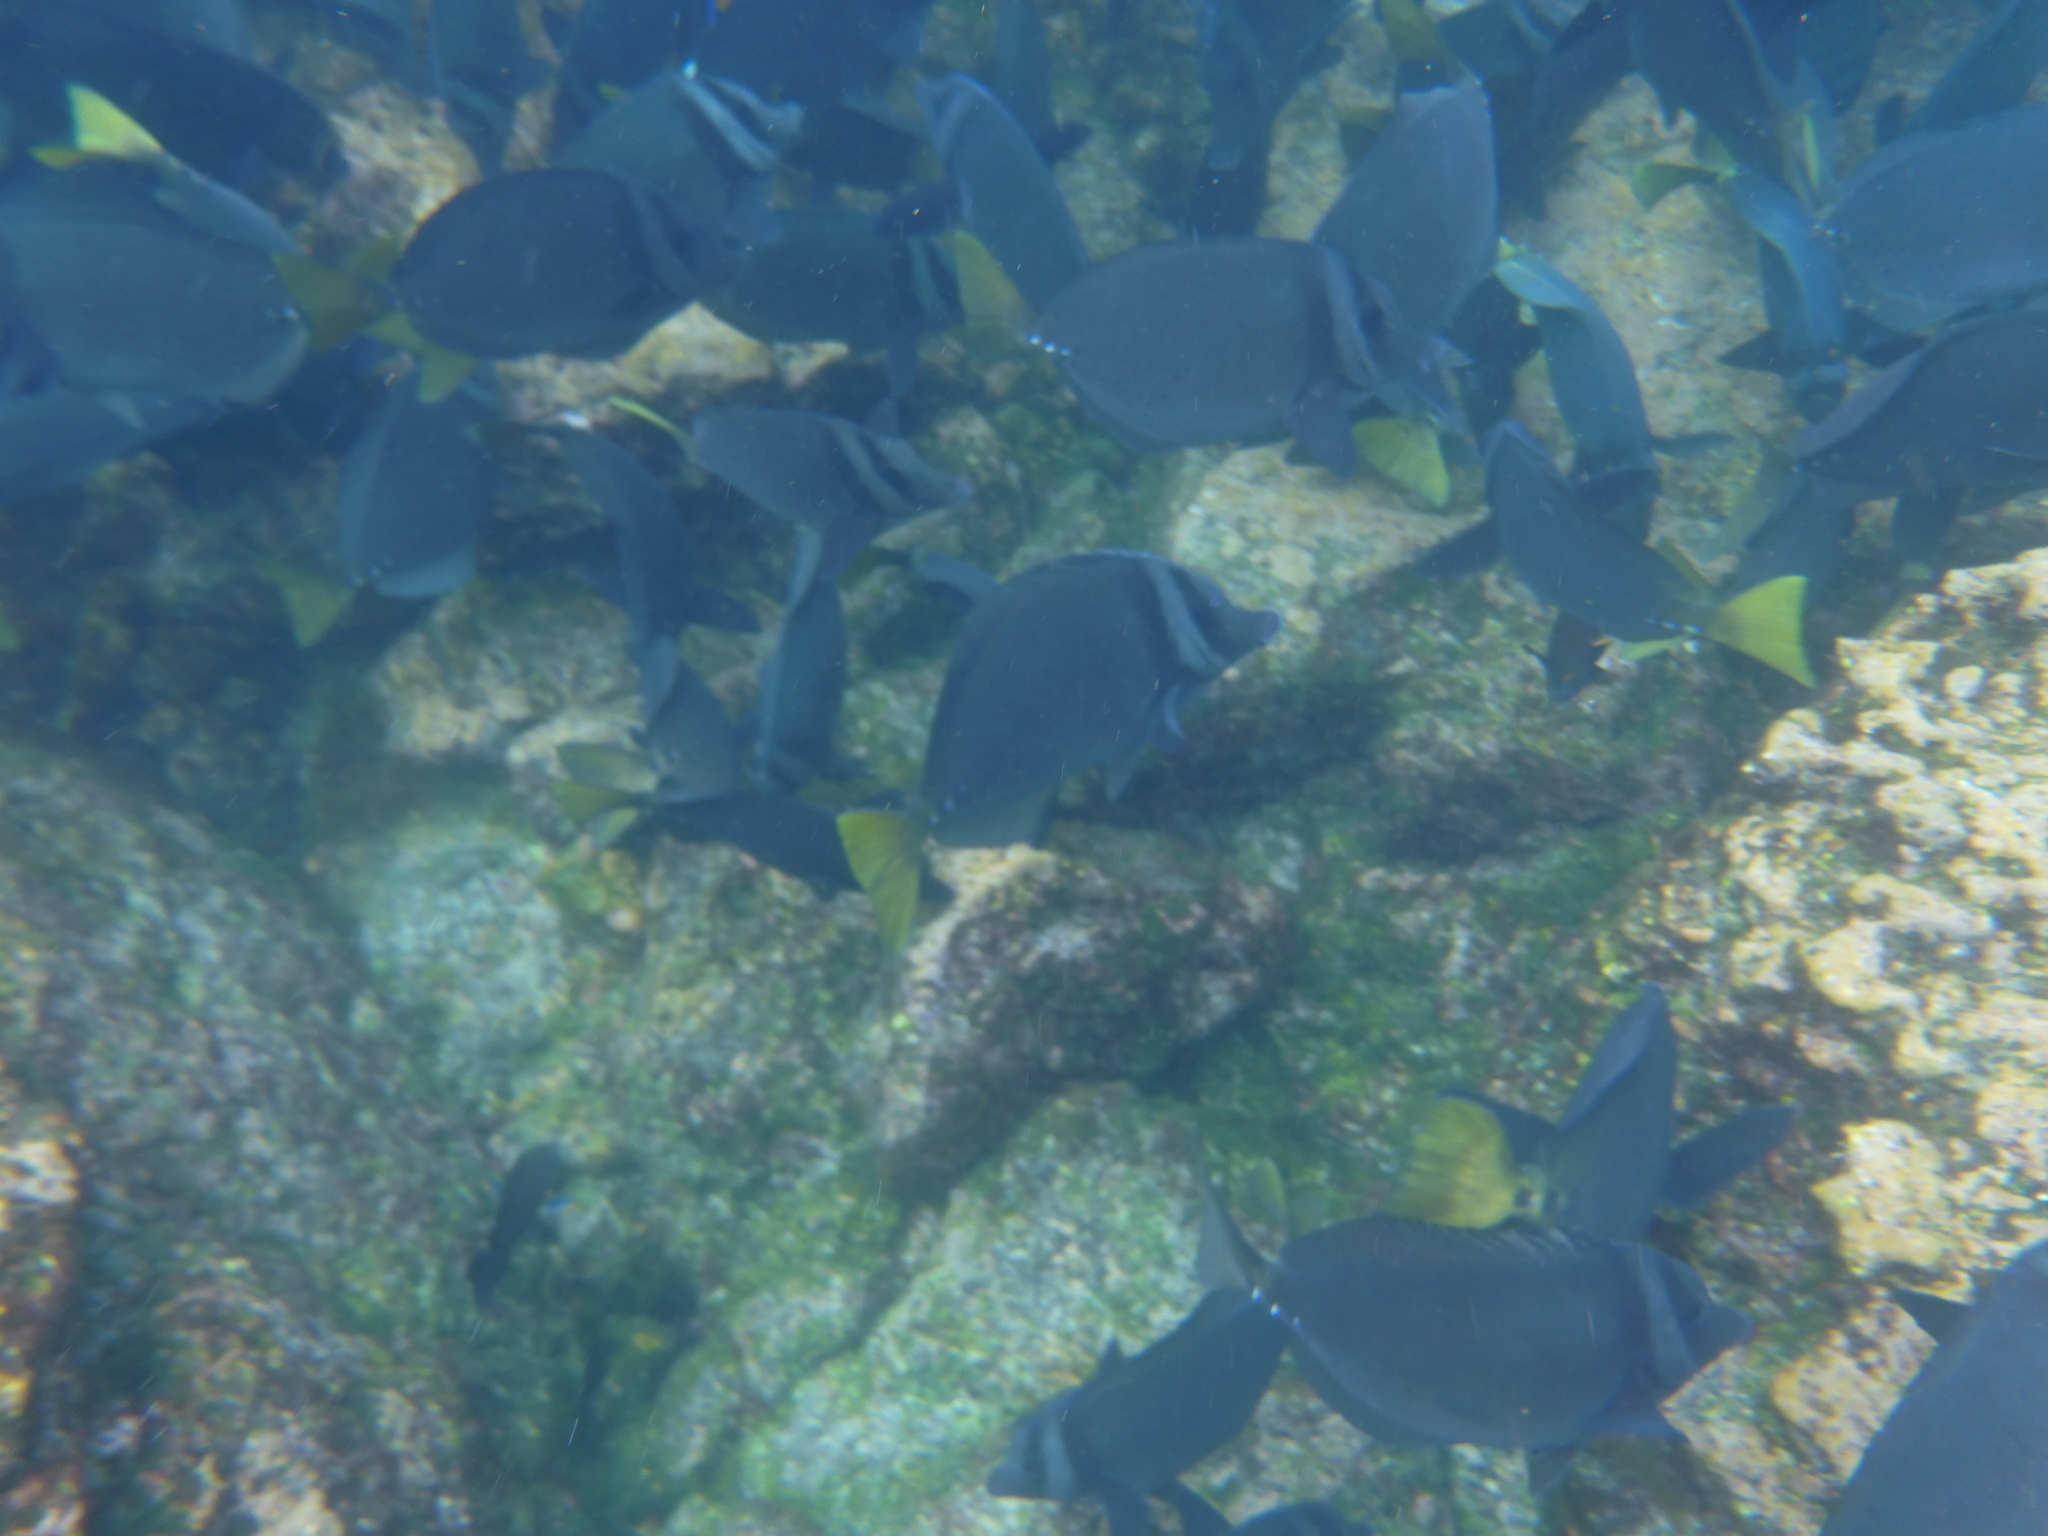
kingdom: Animalia
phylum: Chordata
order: Perciformes
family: Acanthuridae
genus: Prionurus
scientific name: Prionurus laticlavius
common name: Razor surgeonfish
